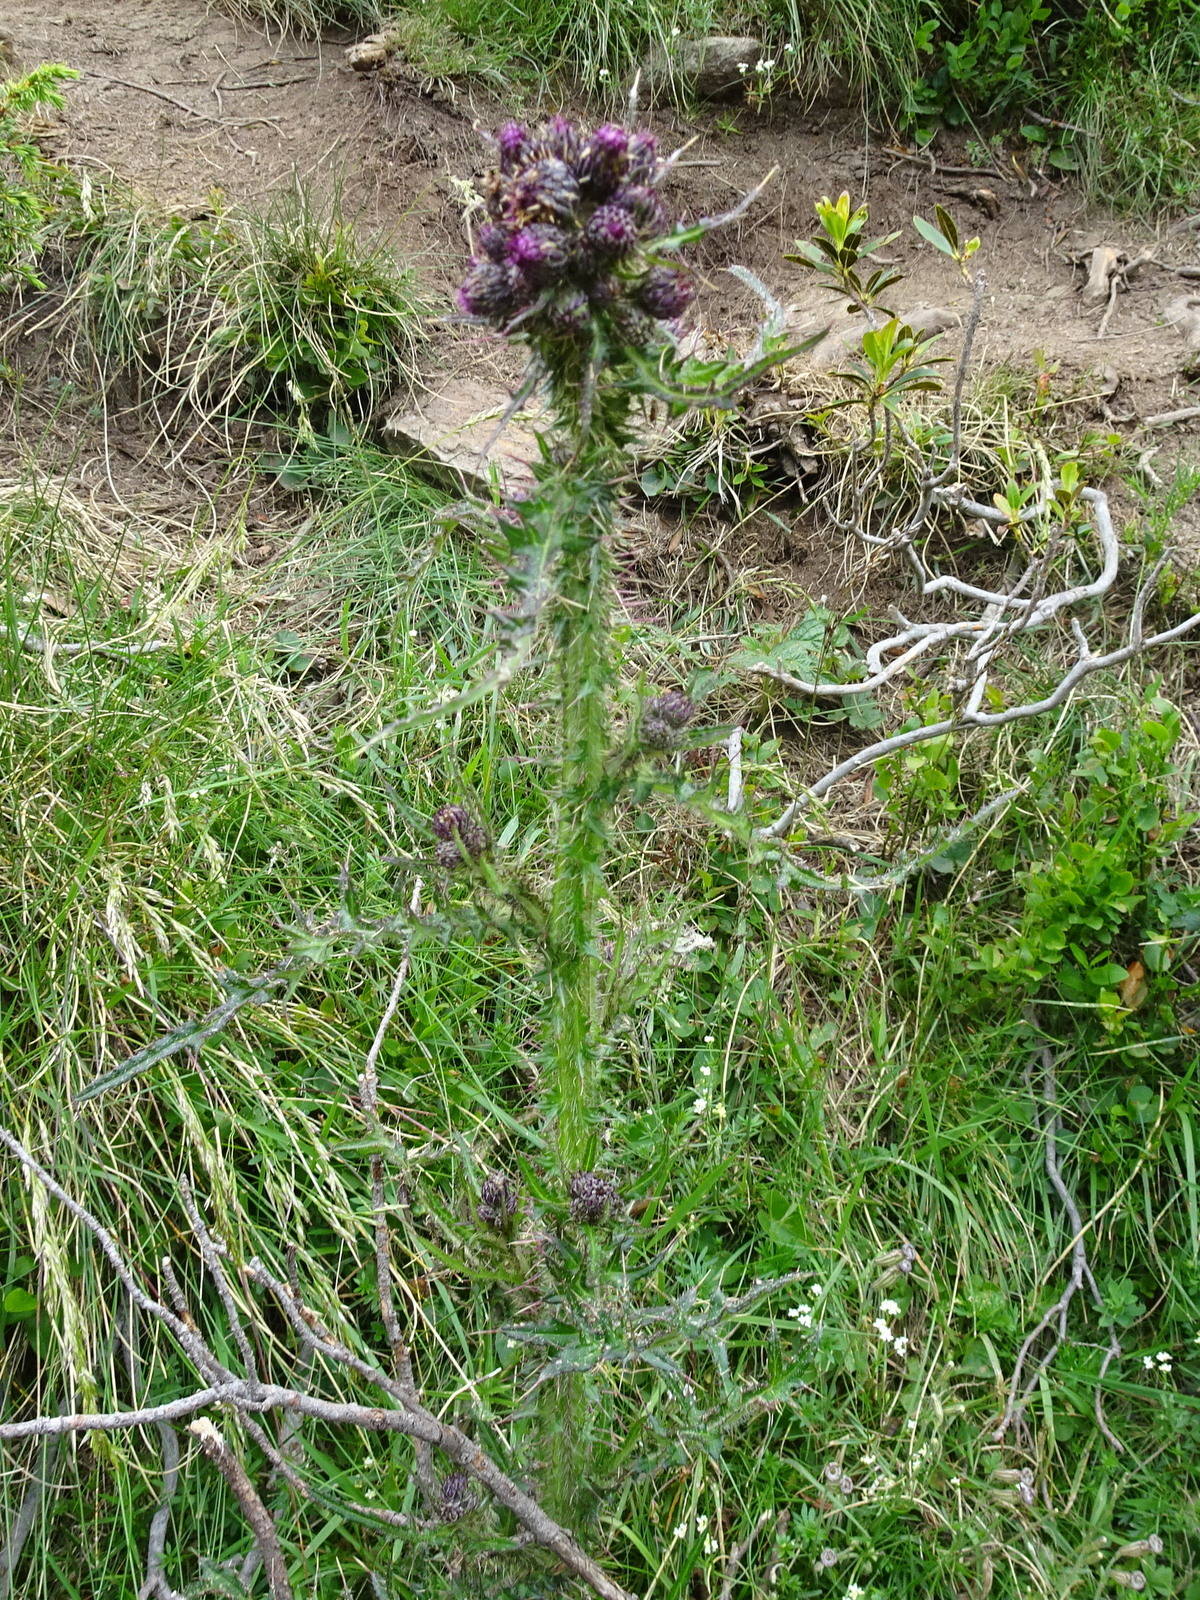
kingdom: Plantae
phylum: Tracheophyta
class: Magnoliopsida
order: Asterales
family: Asteraceae
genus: Cirsium
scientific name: Cirsium palustre
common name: Marsh thistle
